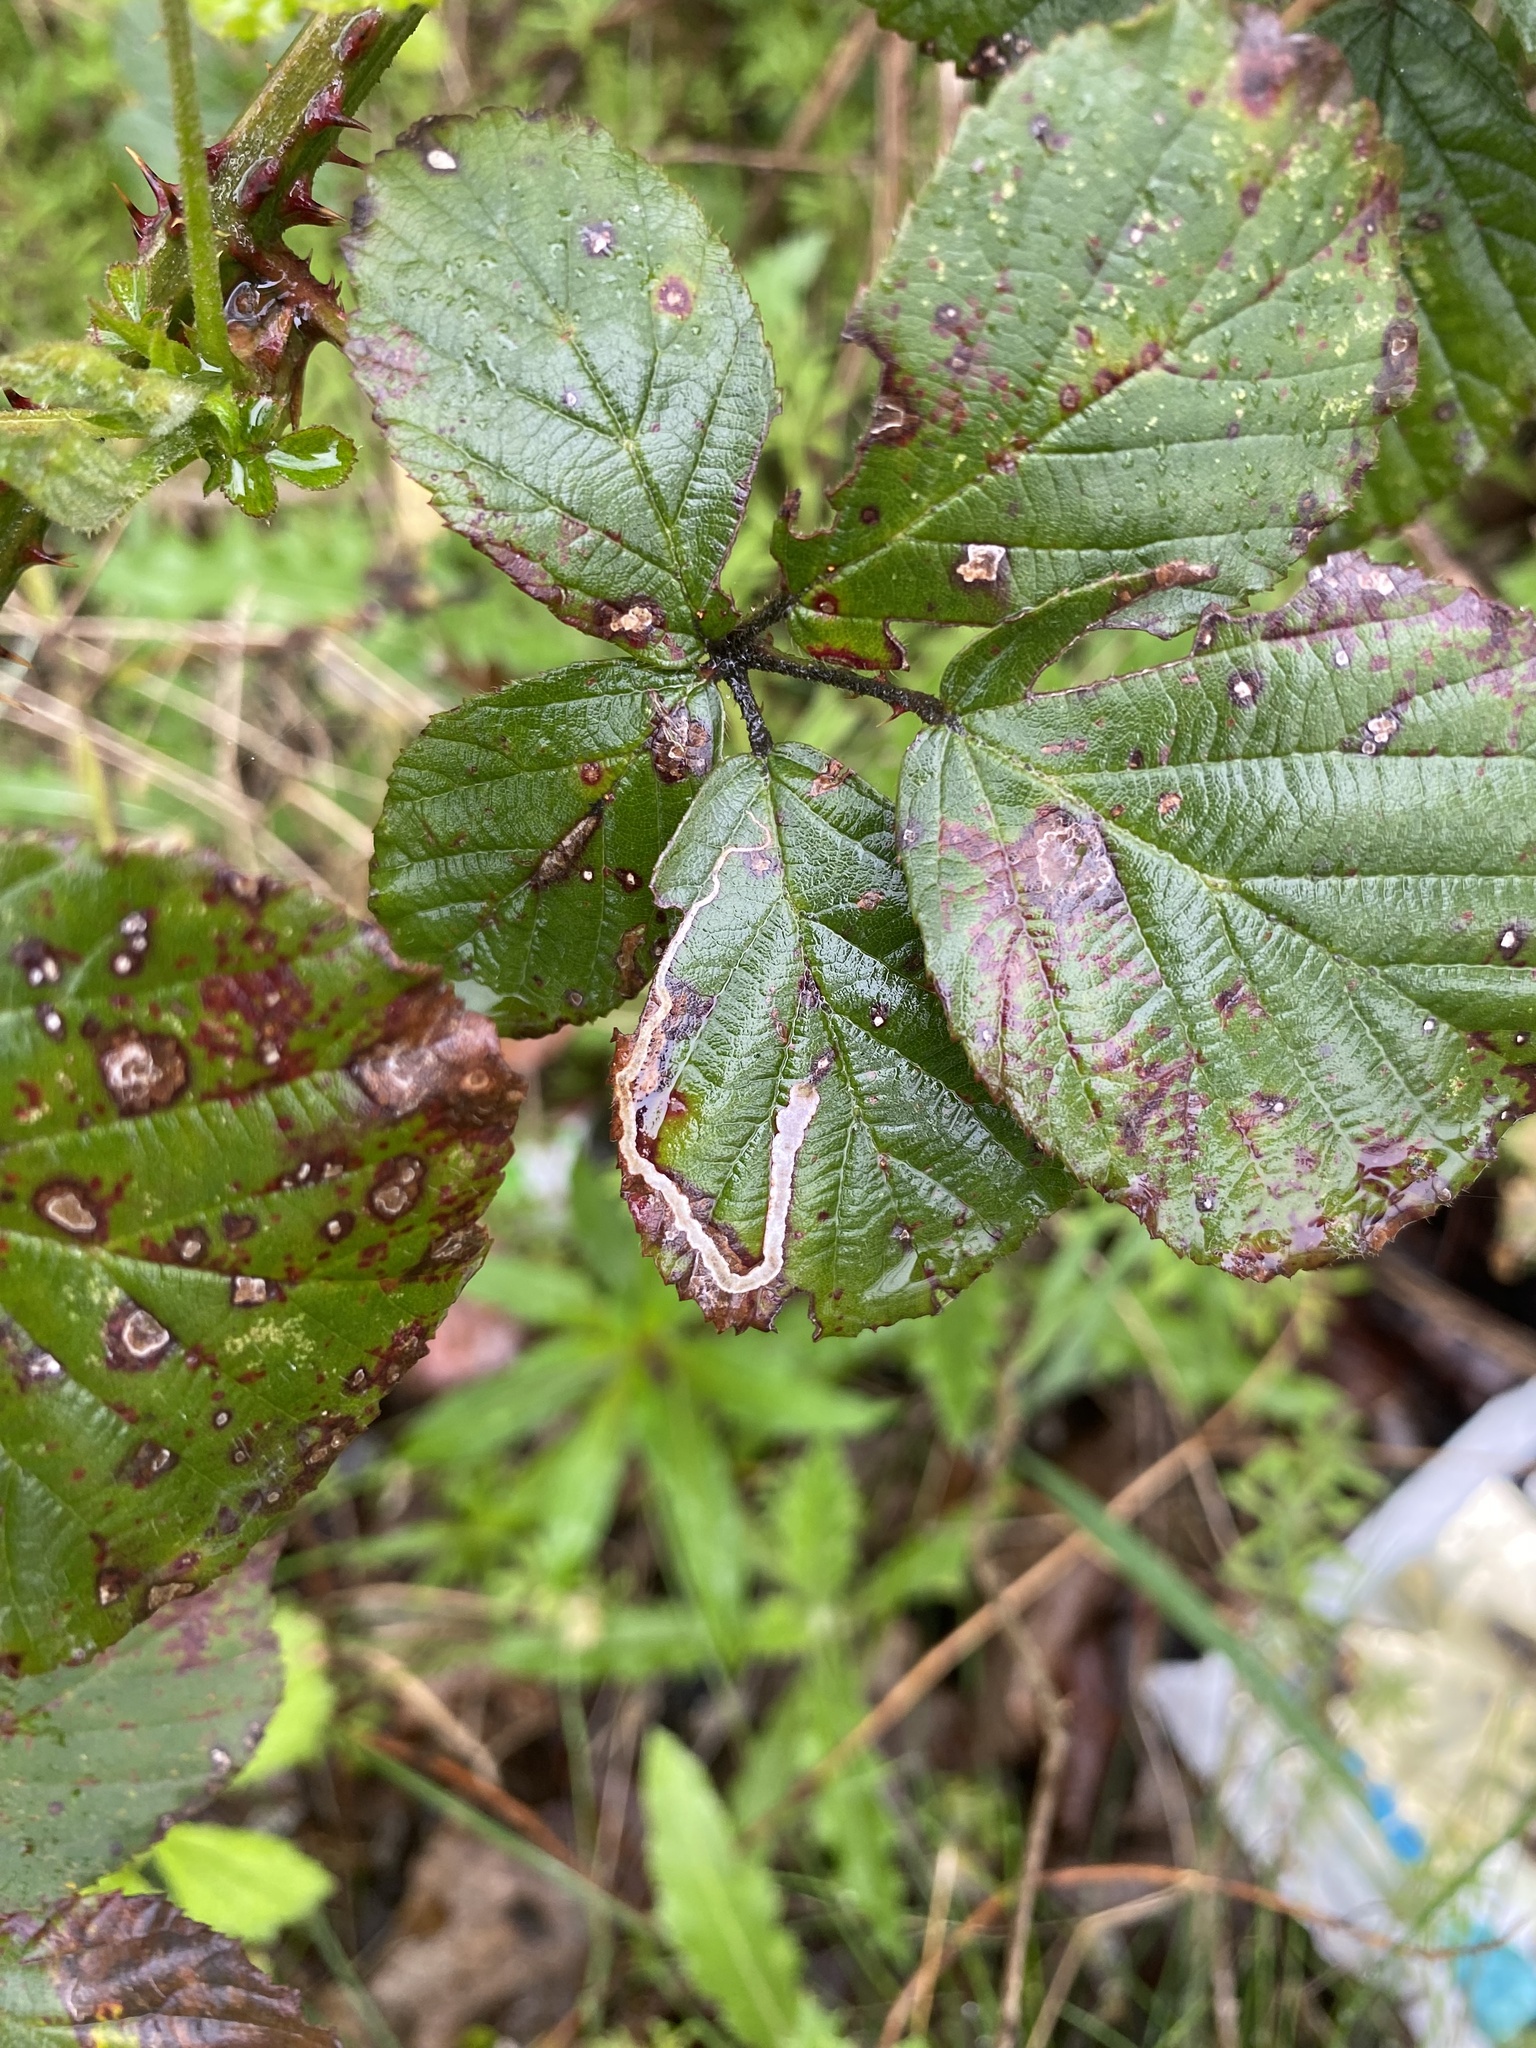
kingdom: Animalia
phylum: Arthropoda
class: Insecta
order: Lepidoptera
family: Nepticulidae
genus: Stigmella
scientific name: Stigmella aurella
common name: Golden pigmy
